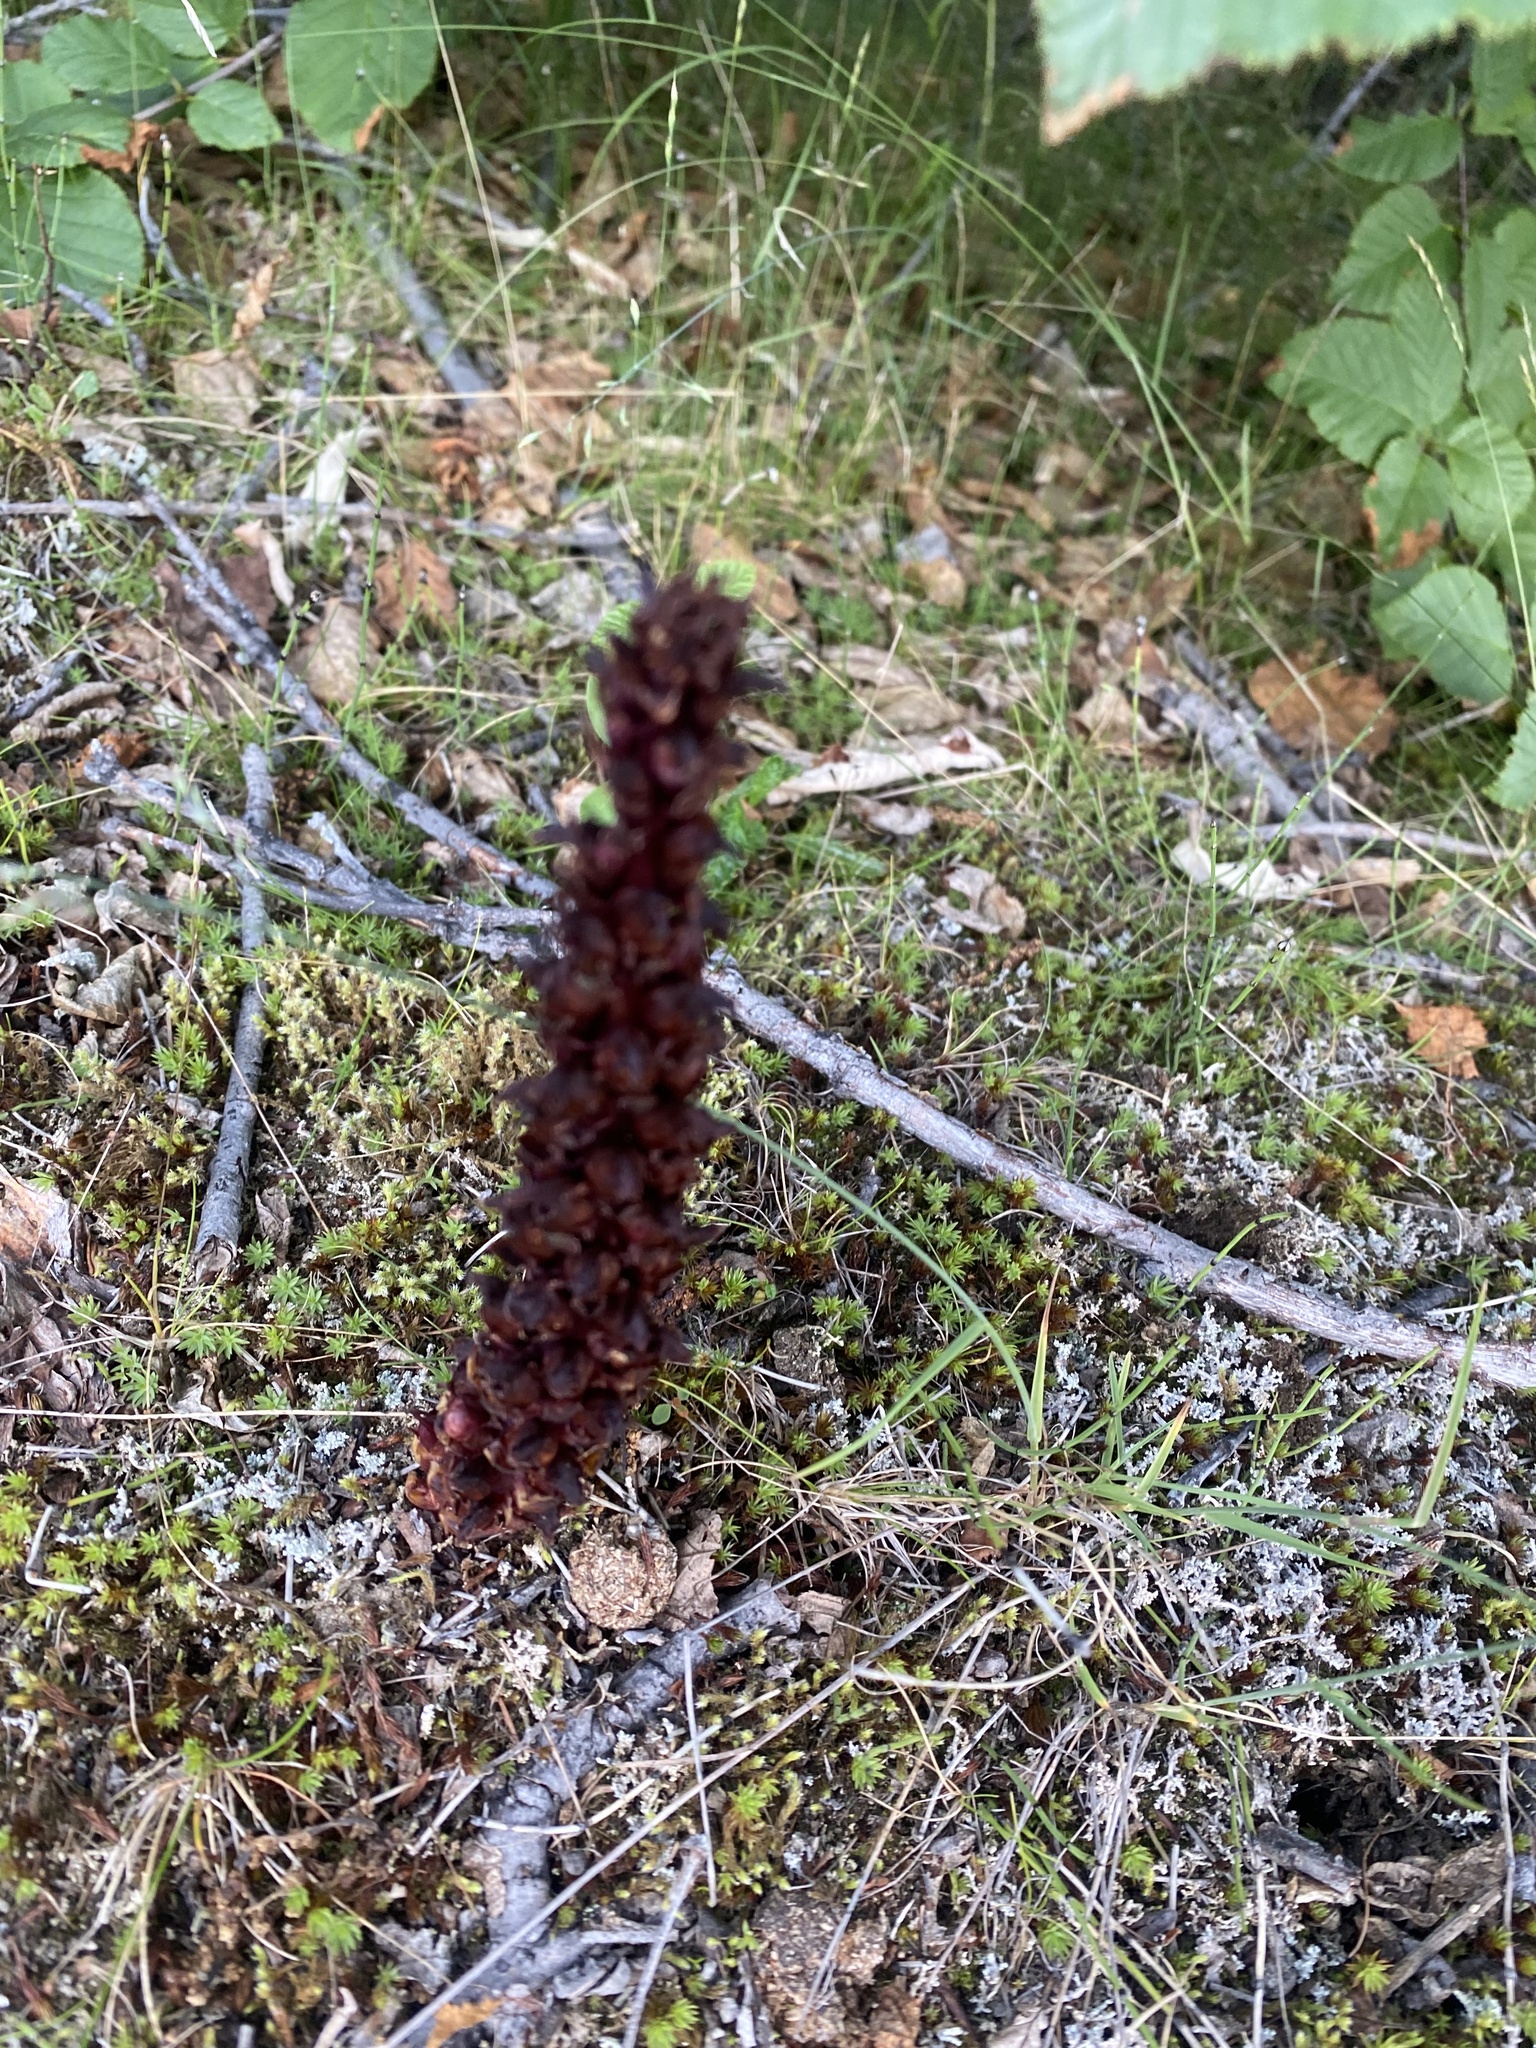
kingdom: Plantae
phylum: Tracheophyta
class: Magnoliopsida
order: Lamiales
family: Orobanchaceae
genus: Boschniakia
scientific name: Boschniakia rossica
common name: Poque
